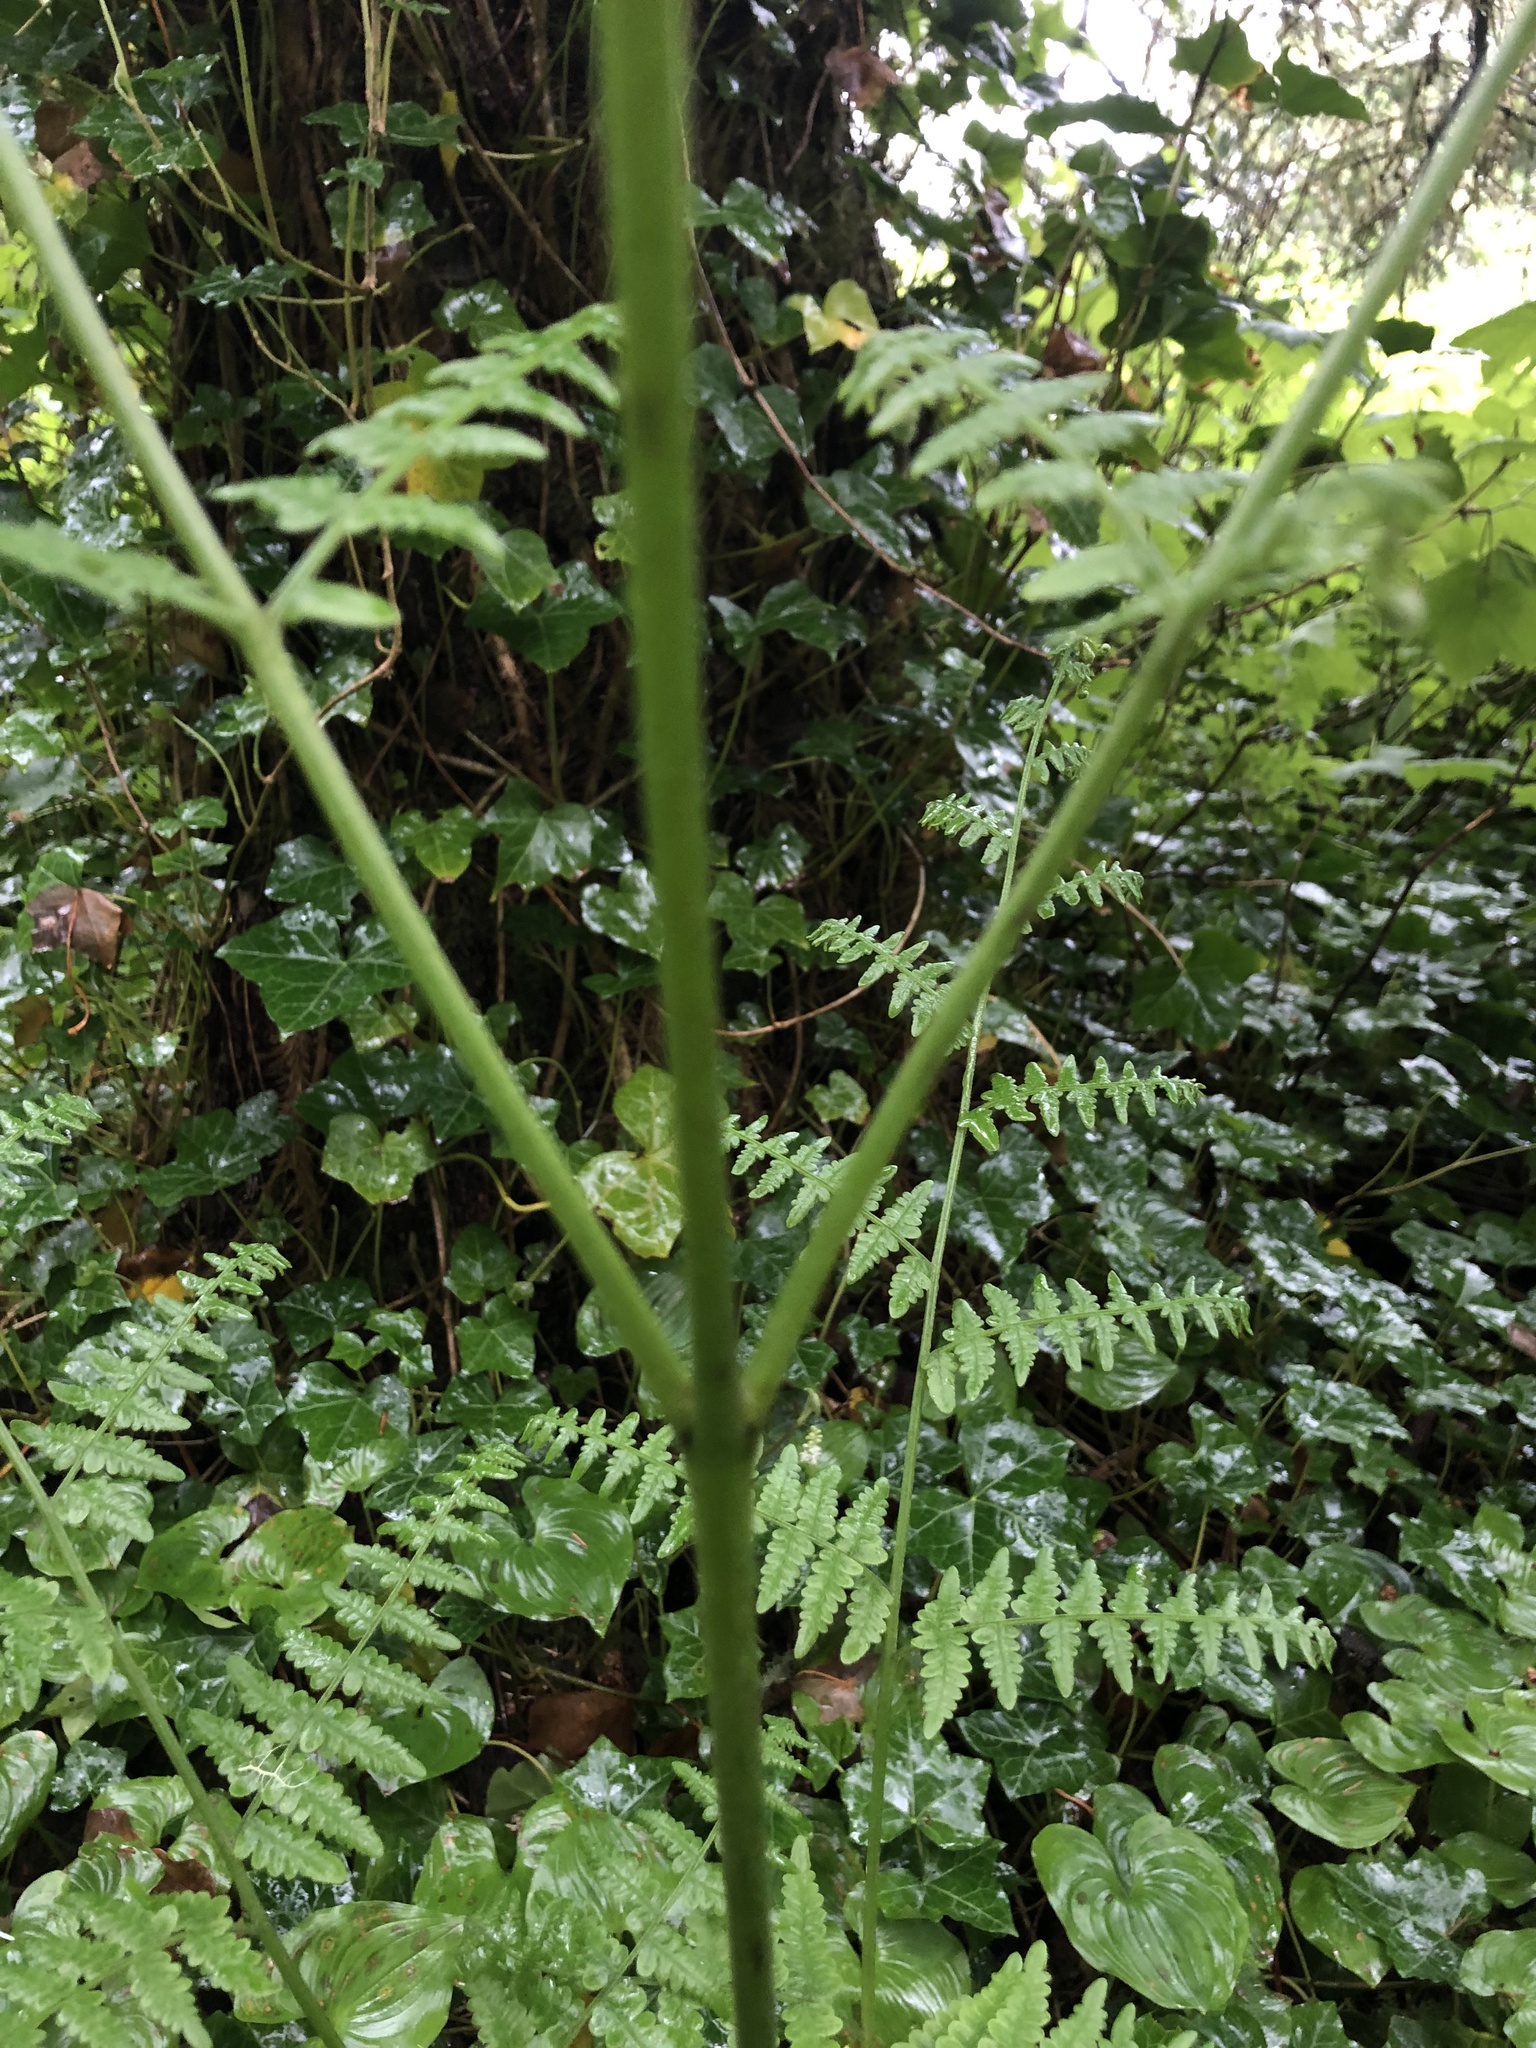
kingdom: Plantae
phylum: Tracheophyta
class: Polypodiopsida
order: Polypodiales
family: Dennstaedtiaceae
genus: Pteridium
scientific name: Pteridium aquilinum
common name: Bracken
